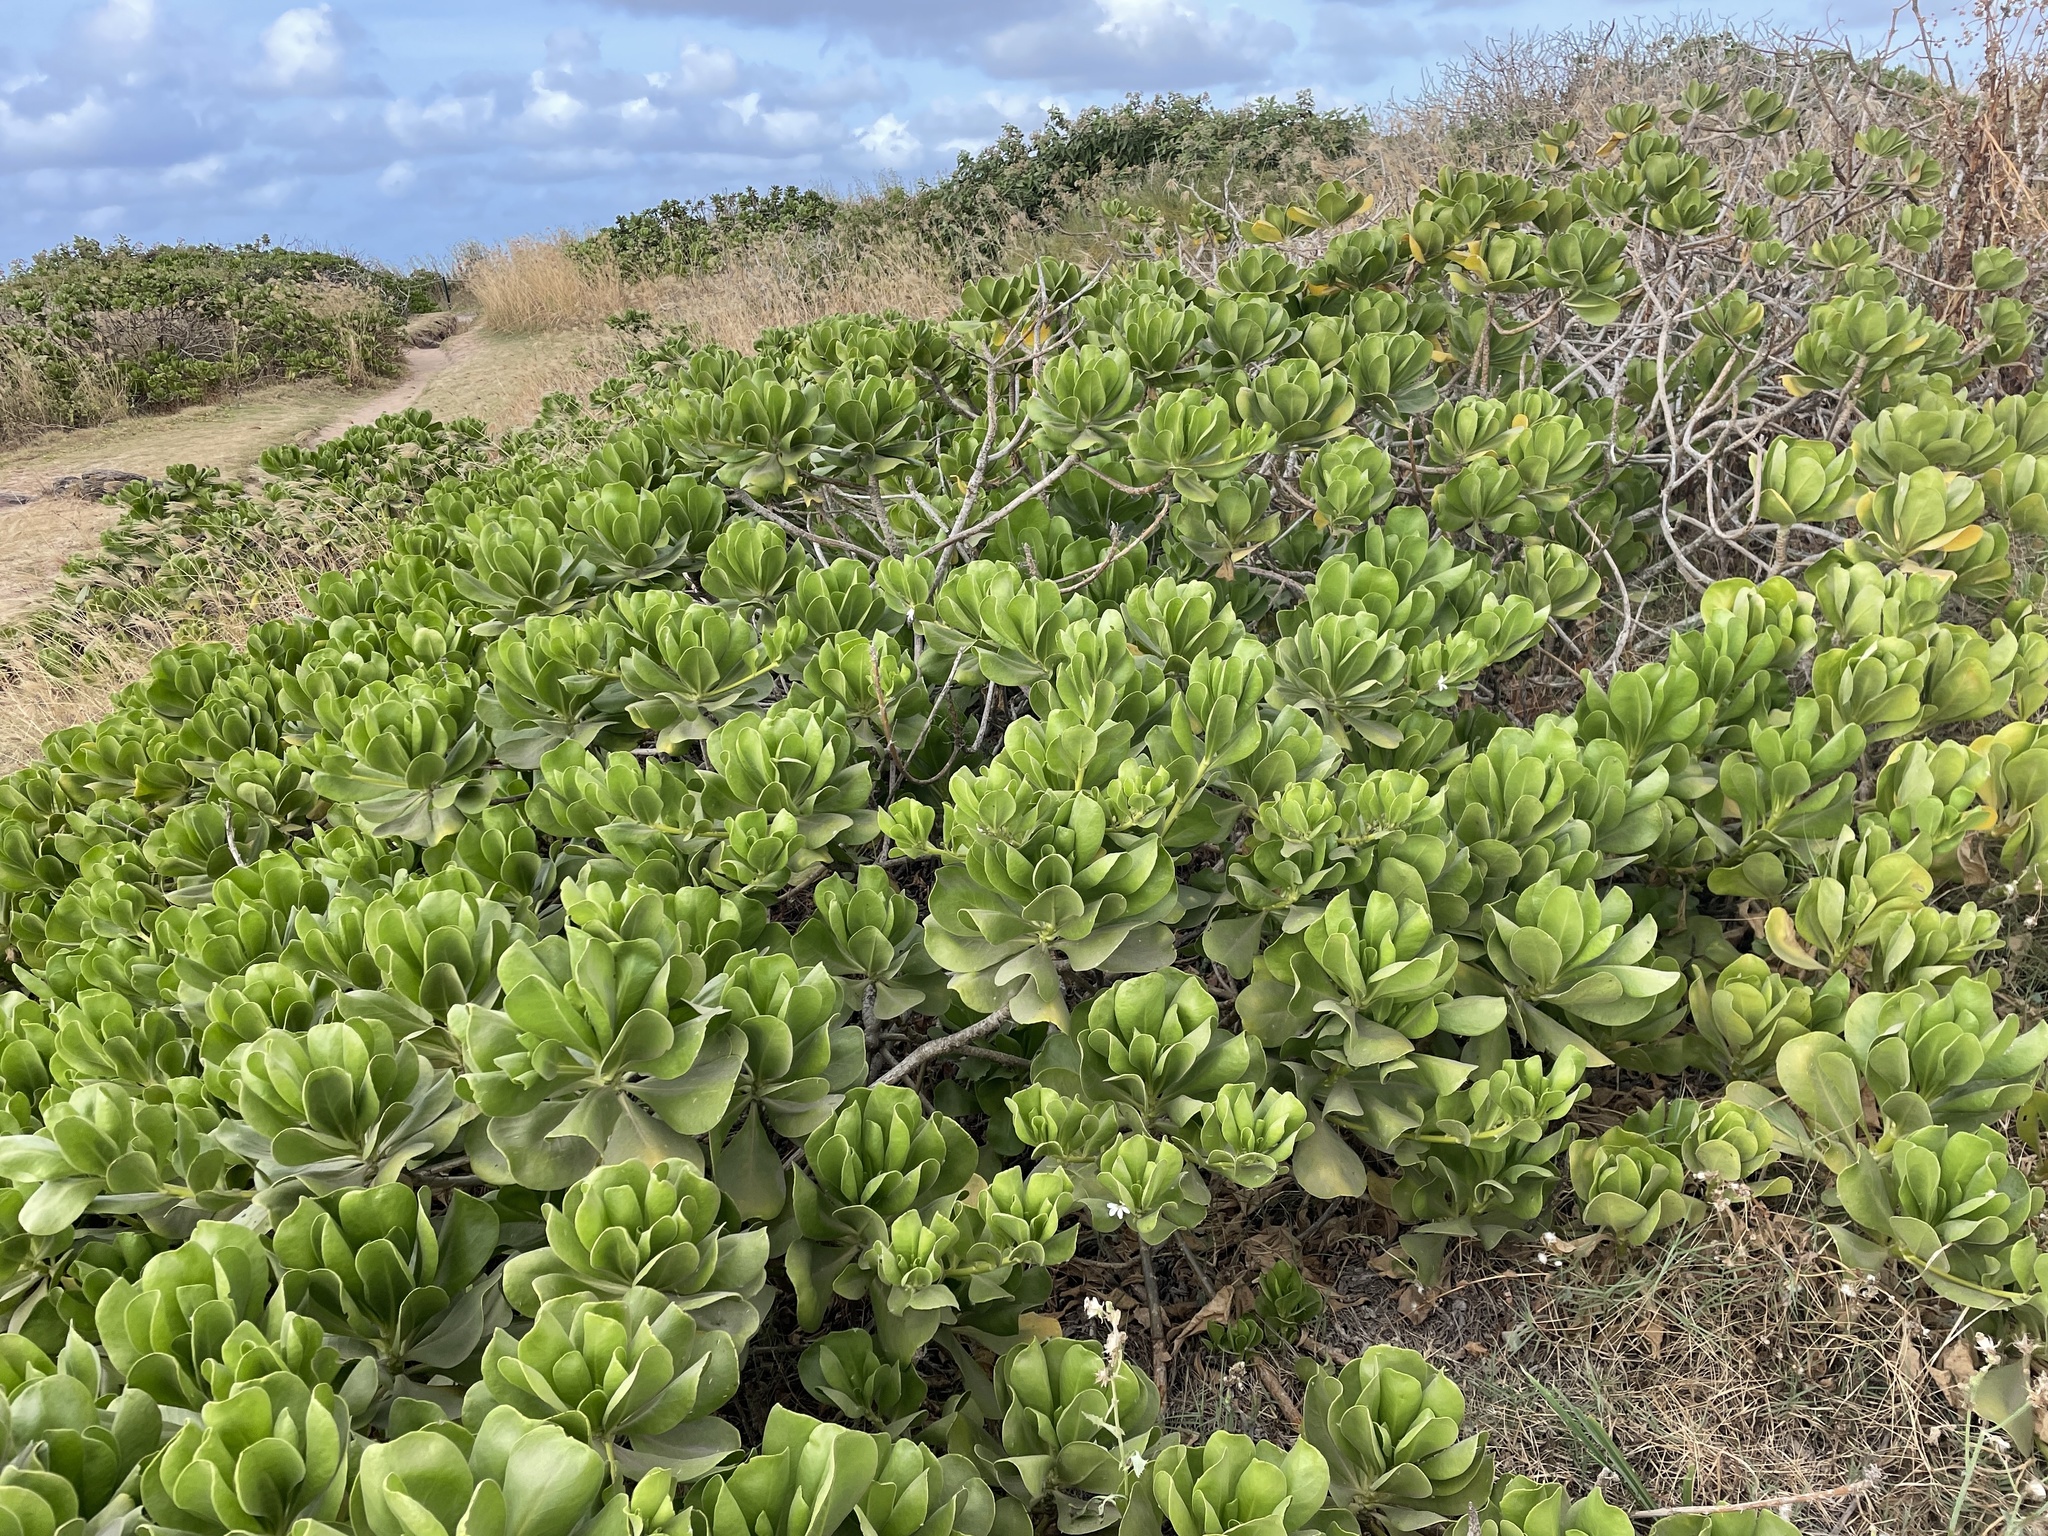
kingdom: Plantae
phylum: Tracheophyta
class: Magnoliopsida
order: Asterales
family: Goodeniaceae
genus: Scaevola
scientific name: Scaevola taccada
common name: Sea lettucetree
